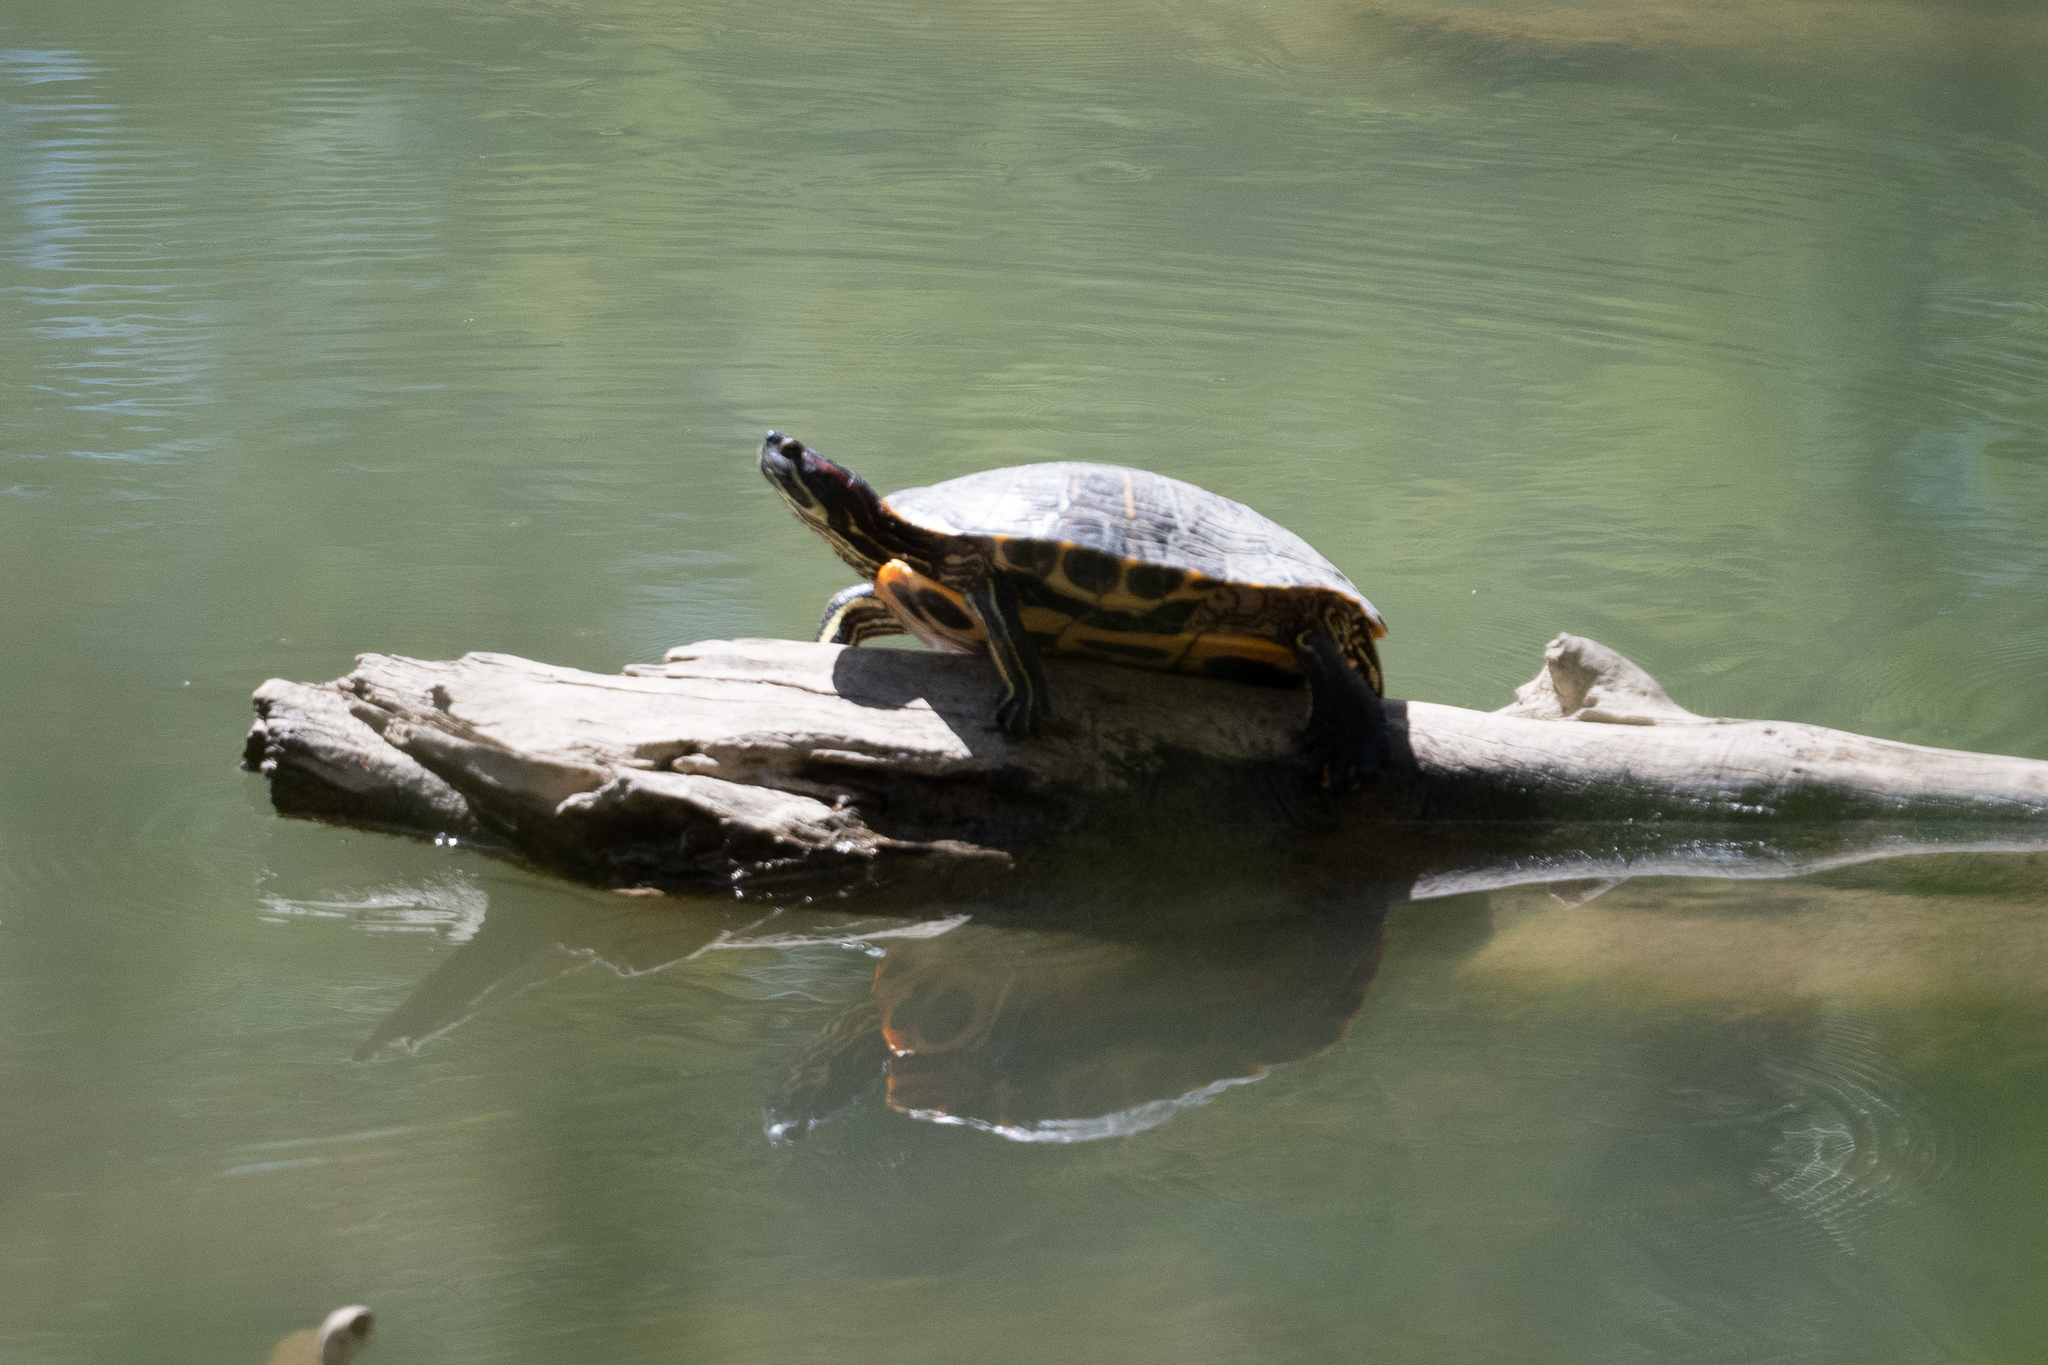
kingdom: Animalia
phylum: Chordata
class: Testudines
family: Emydidae
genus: Trachemys
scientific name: Trachemys scripta
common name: Slider
